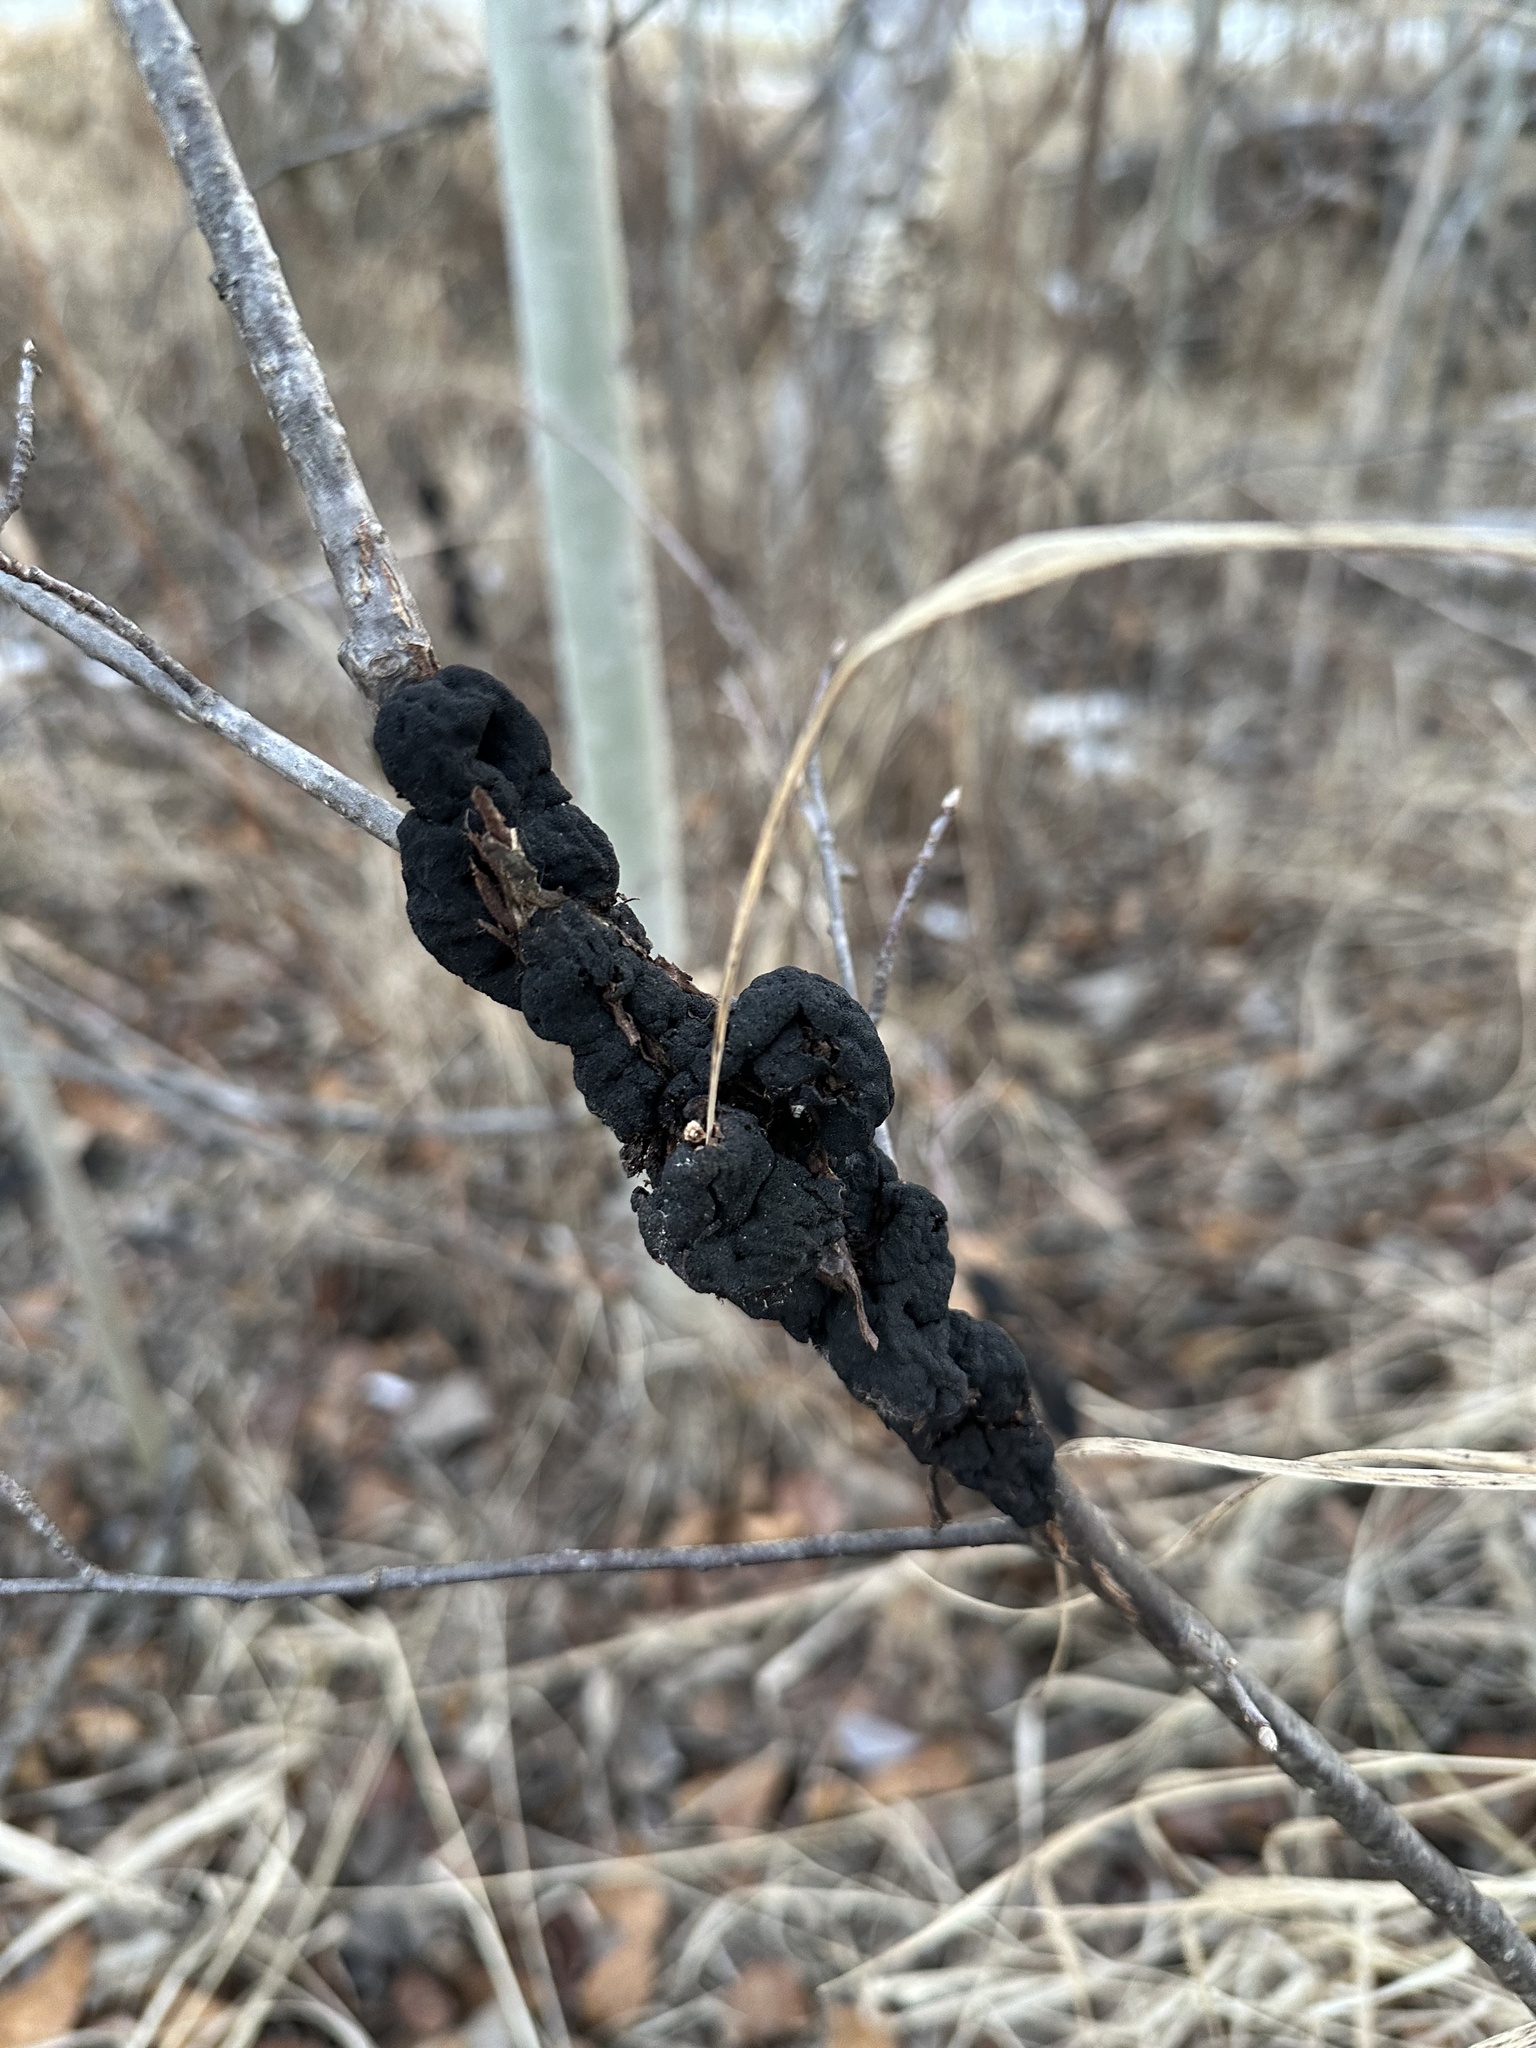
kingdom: Fungi
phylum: Ascomycota
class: Dothideomycetes
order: Venturiales
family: Venturiaceae
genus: Apiosporina
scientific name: Apiosporina morbosa
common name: Black knot
